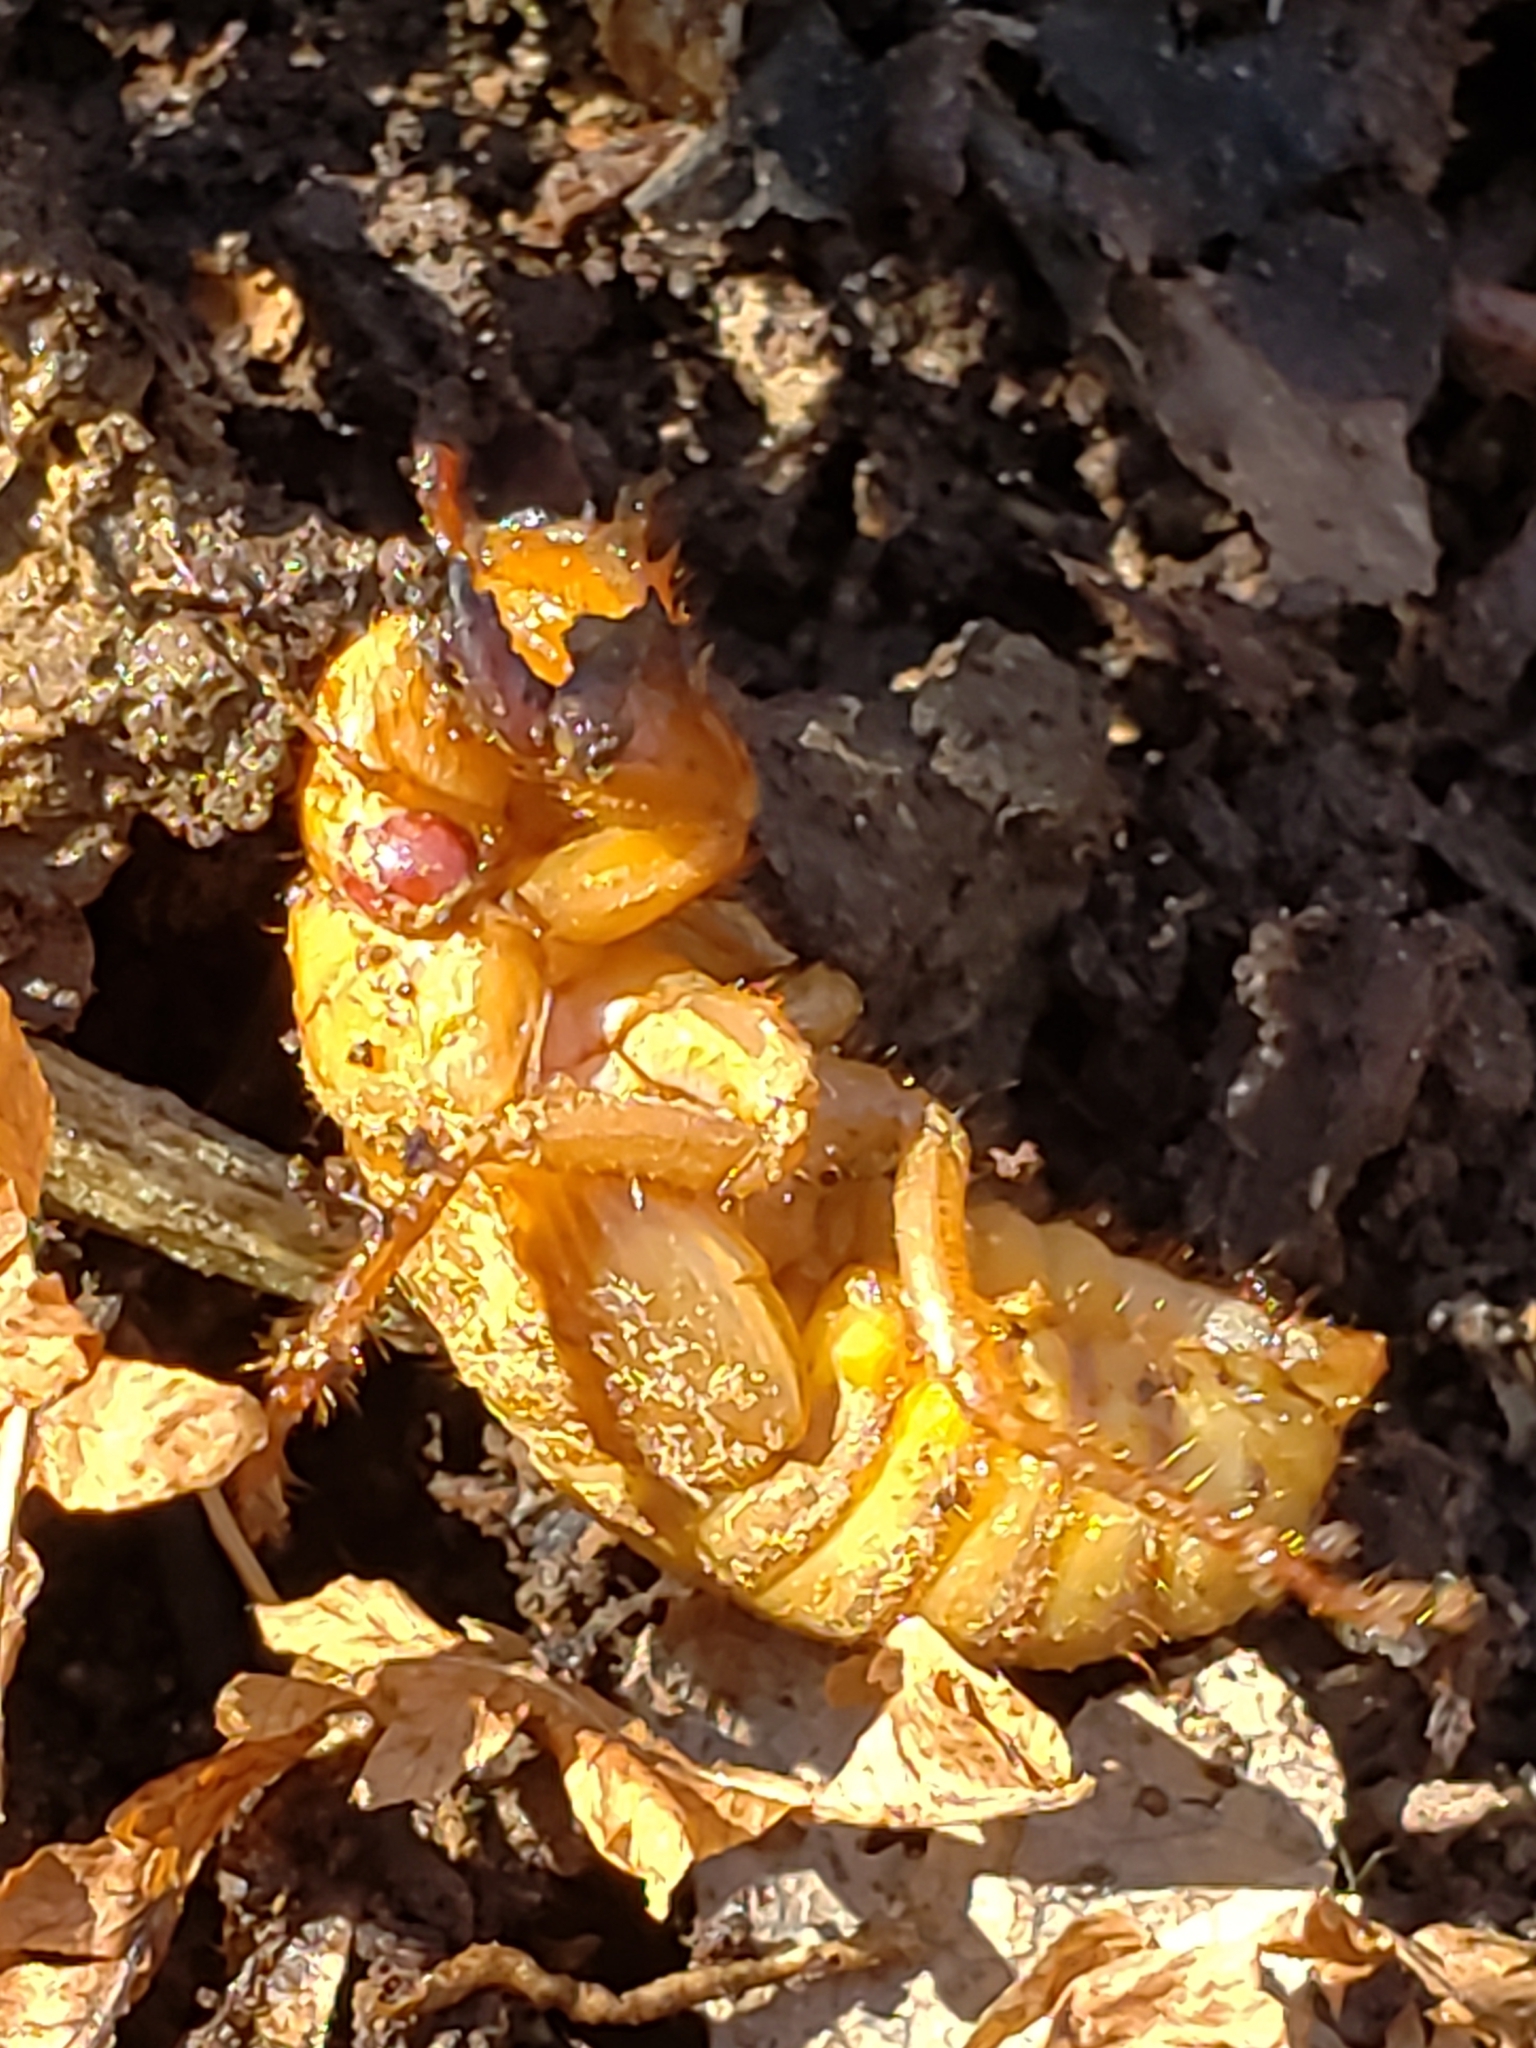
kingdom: Animalia
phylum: Arthropoda
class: Insecta
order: Hemiptera
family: Cicadidae
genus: Magicicada
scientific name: Magicicada
